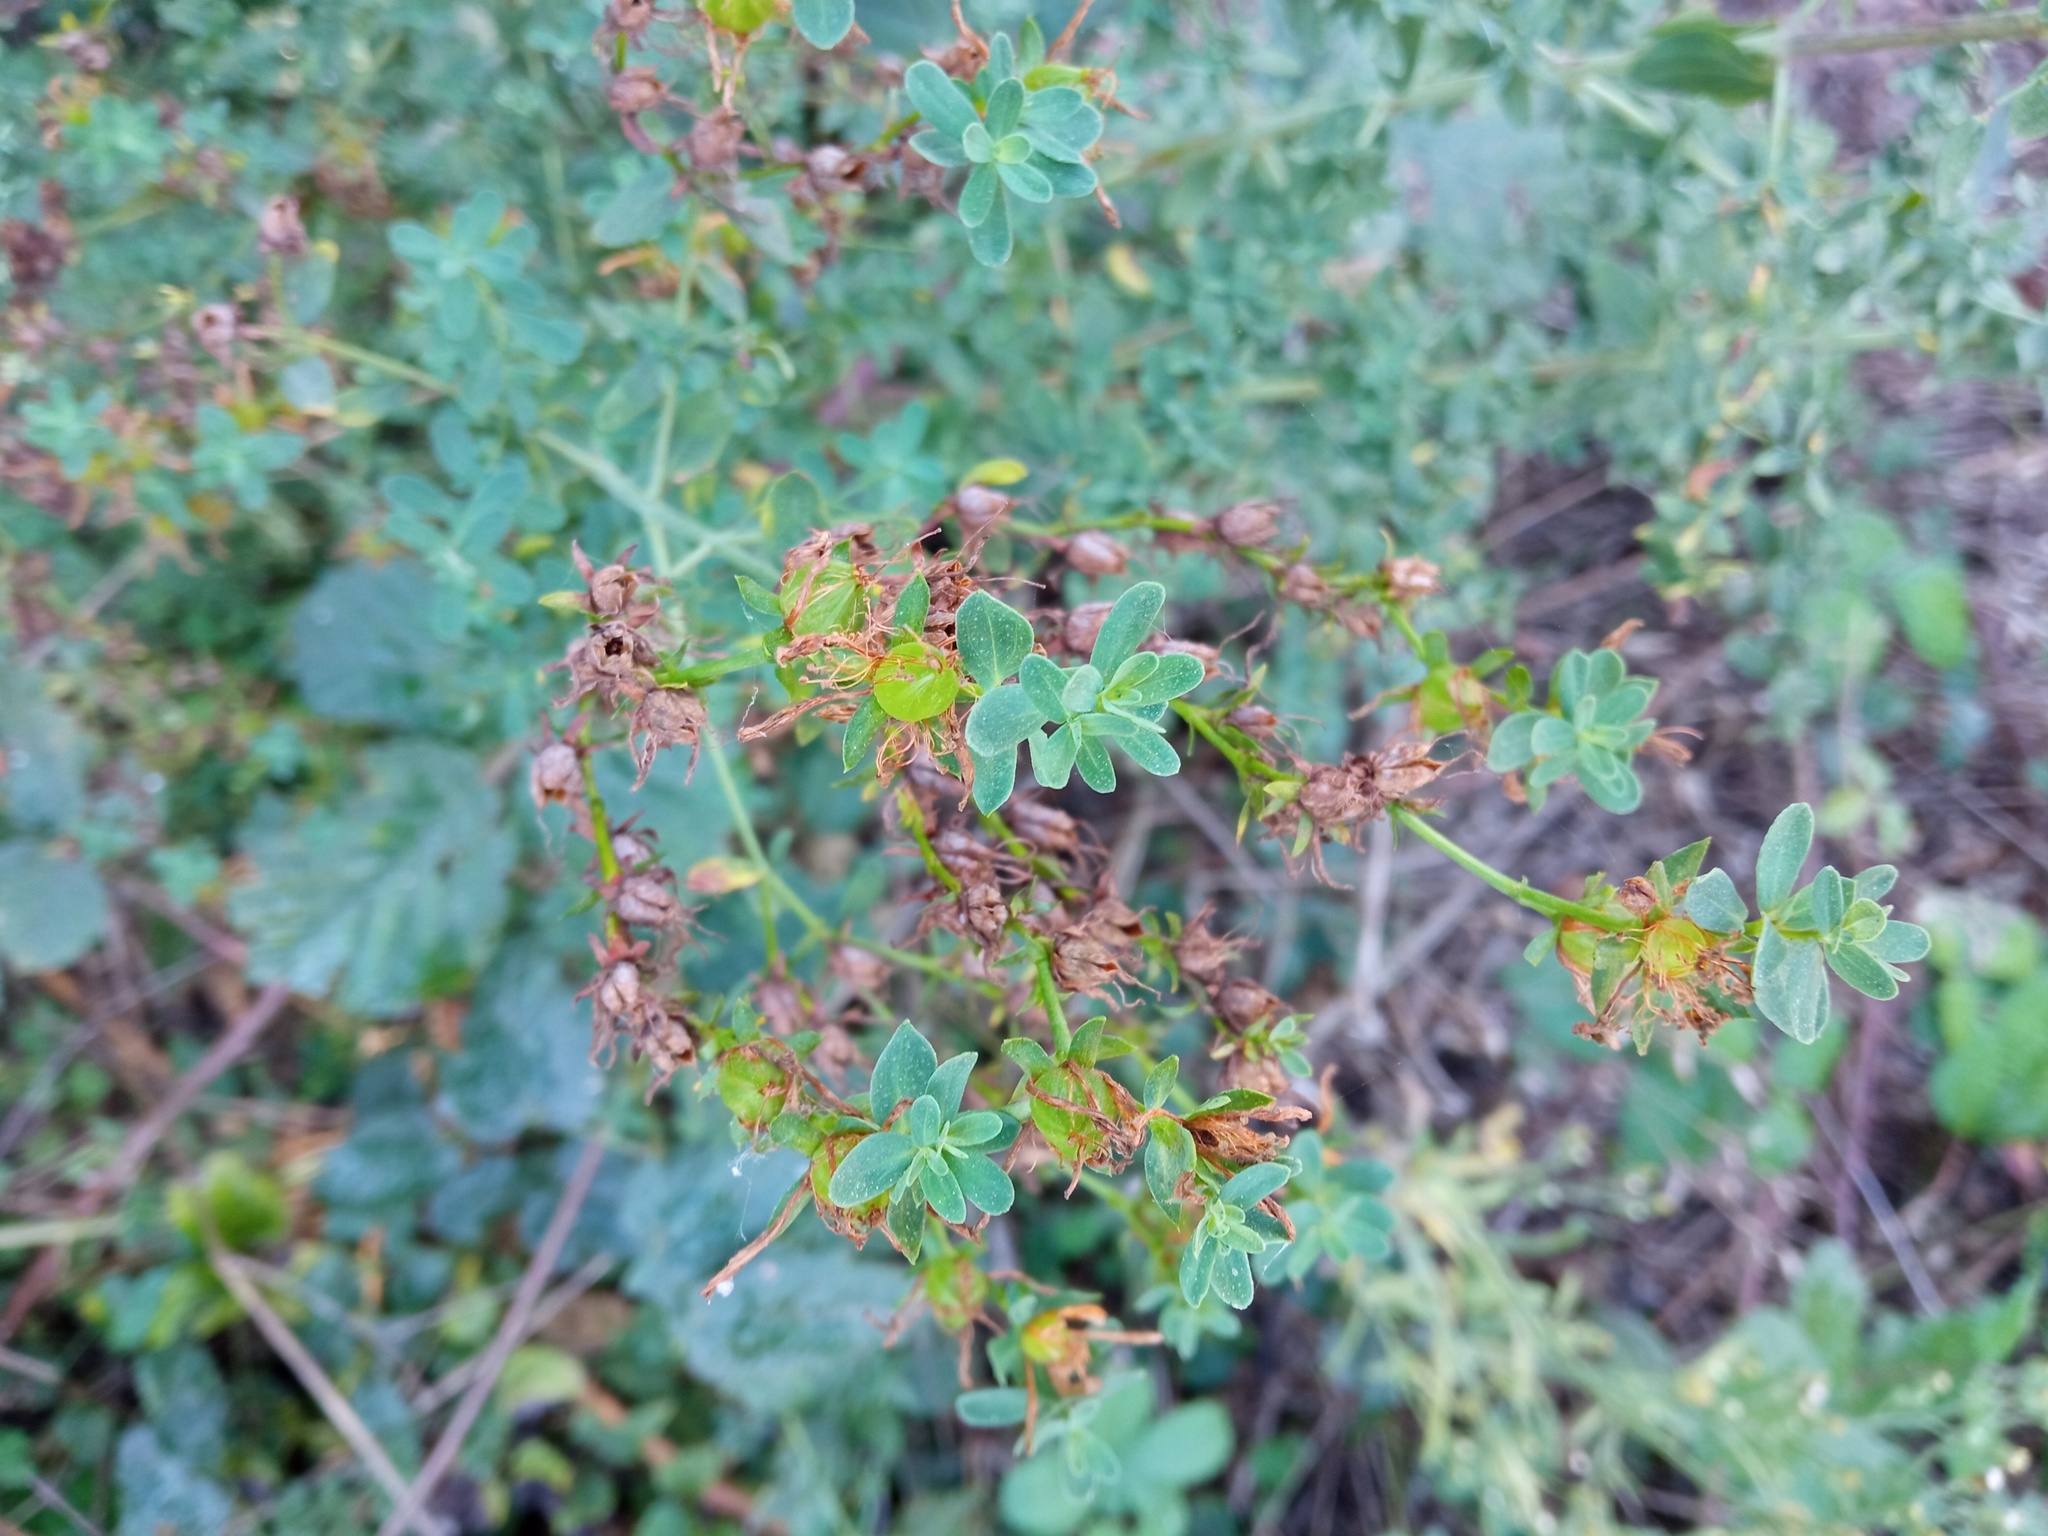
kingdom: Plantae
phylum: Tracheophyta
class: Magnoliopsida
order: Malpighiales
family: Hypericaceae
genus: Hypericum
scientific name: Hypericum perforatum
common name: Common st. johnswort
